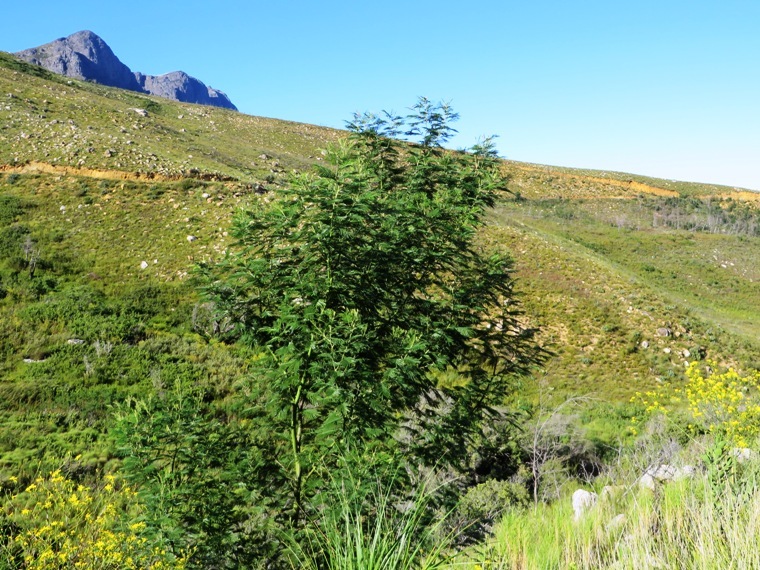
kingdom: Plantae
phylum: Tracheophyta
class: Magnoliopsida
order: Fabales
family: Fabaceae
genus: Acacia
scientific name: Acacia mearnsii
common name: Black wattle
